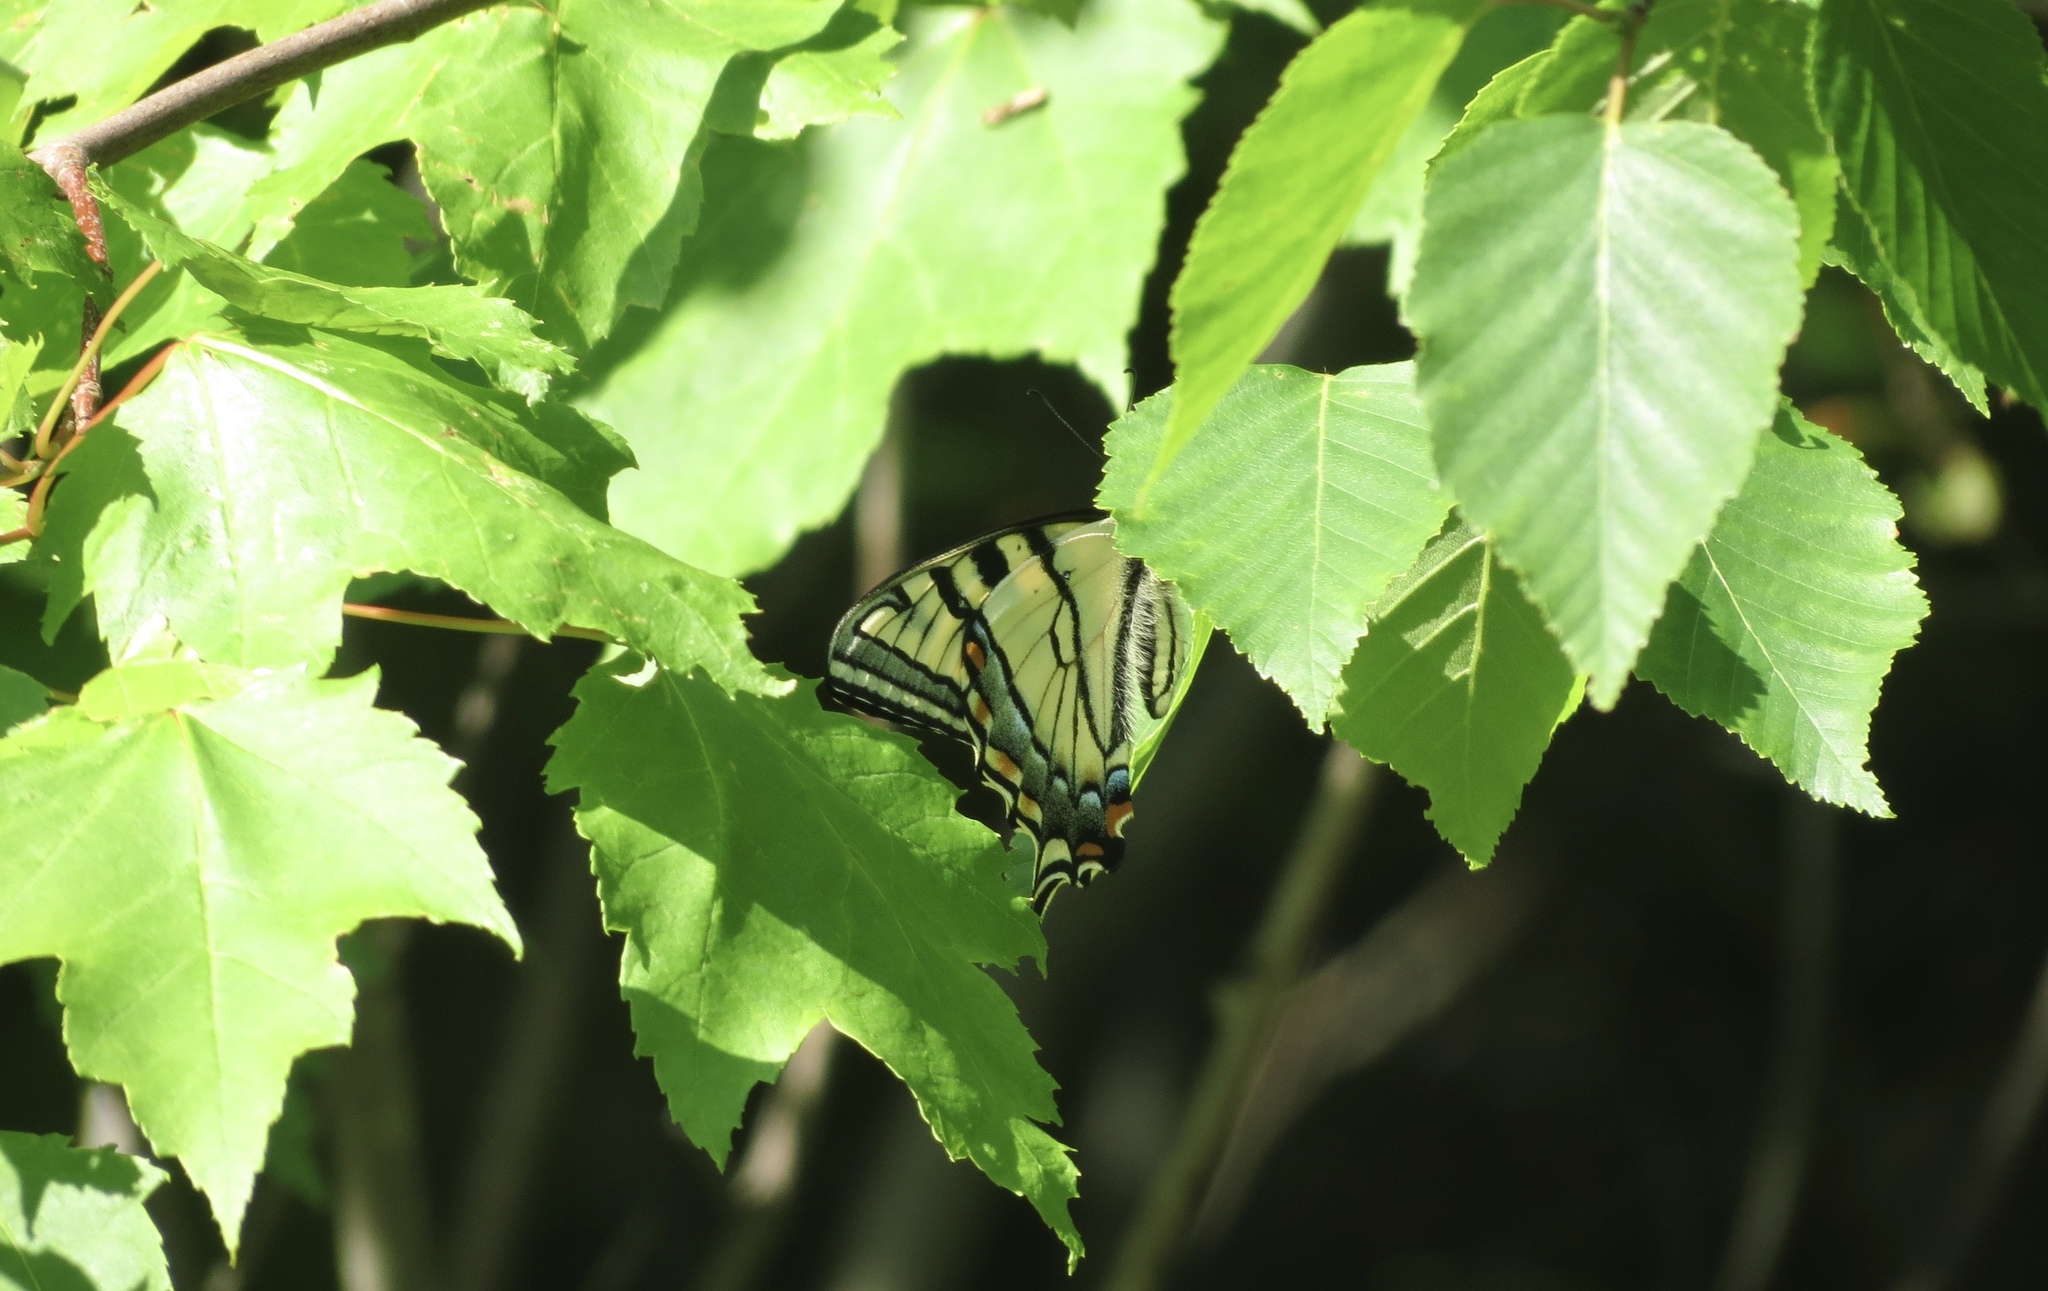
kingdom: Animalia
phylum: Arthropoda
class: Insecta
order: Lepidoptera
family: Papilionidae
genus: Papilio
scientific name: Papilio canadensis
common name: Canadian tiger swallowtail
